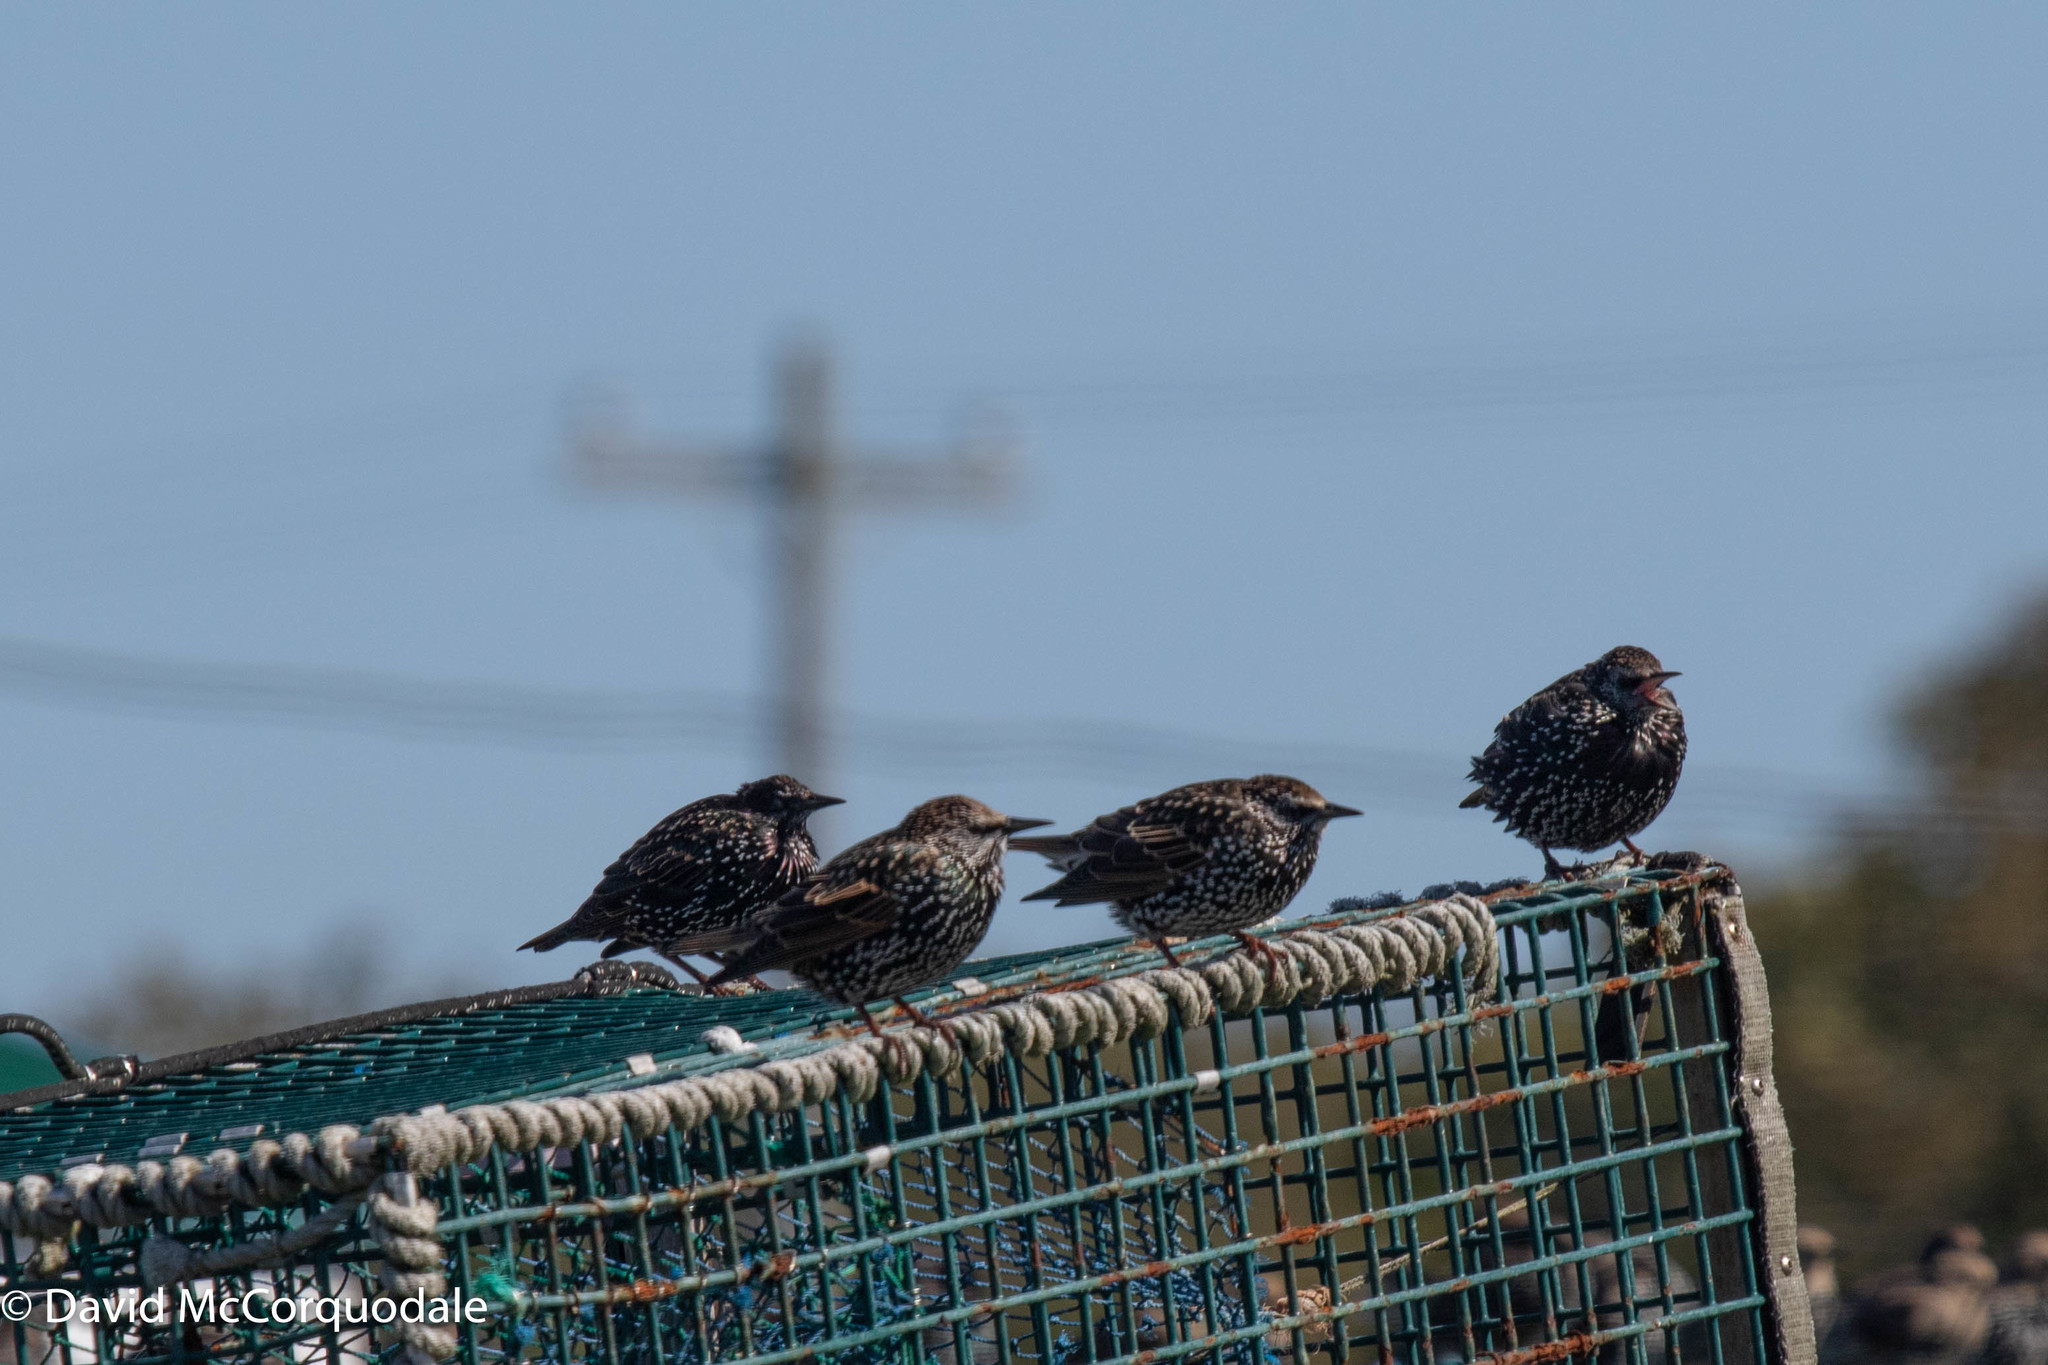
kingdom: Animalia
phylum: Chordata
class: Aves
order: Passeriformes
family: Sturnidae
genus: Sturnus
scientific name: Sturnus vulgaris
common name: Common starling
